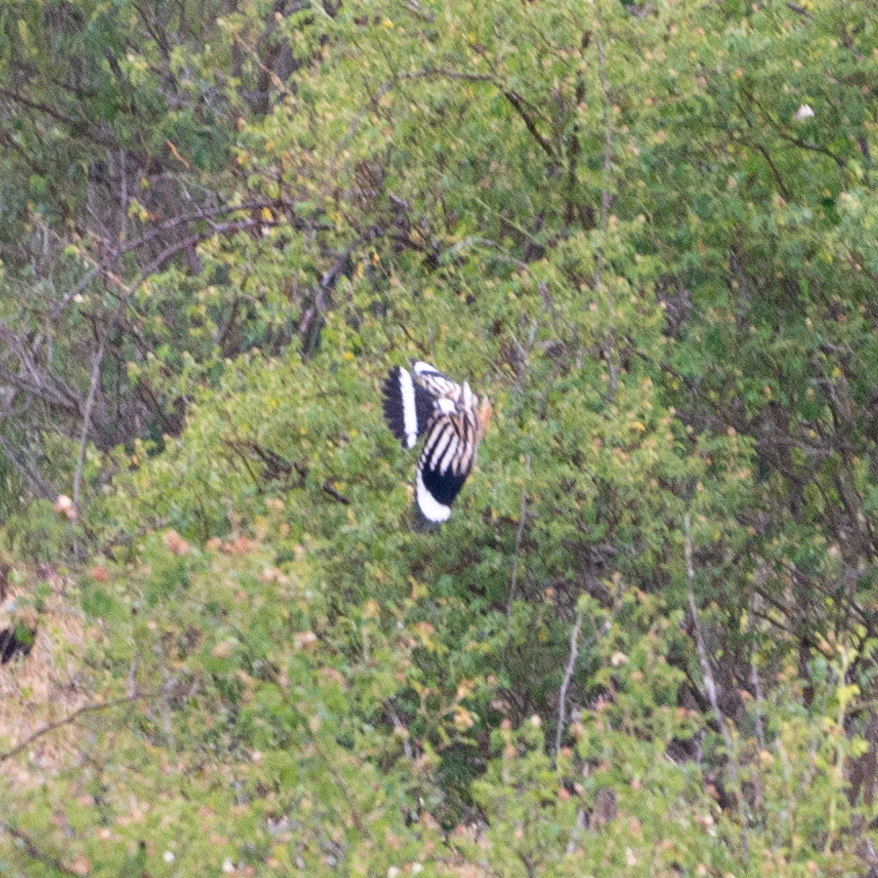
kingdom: Animalia
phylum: Chordata
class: Aves
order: Bucerotiformes
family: Upupidae
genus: Upupa
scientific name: Upupa epops
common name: Eurasian hoopoe
